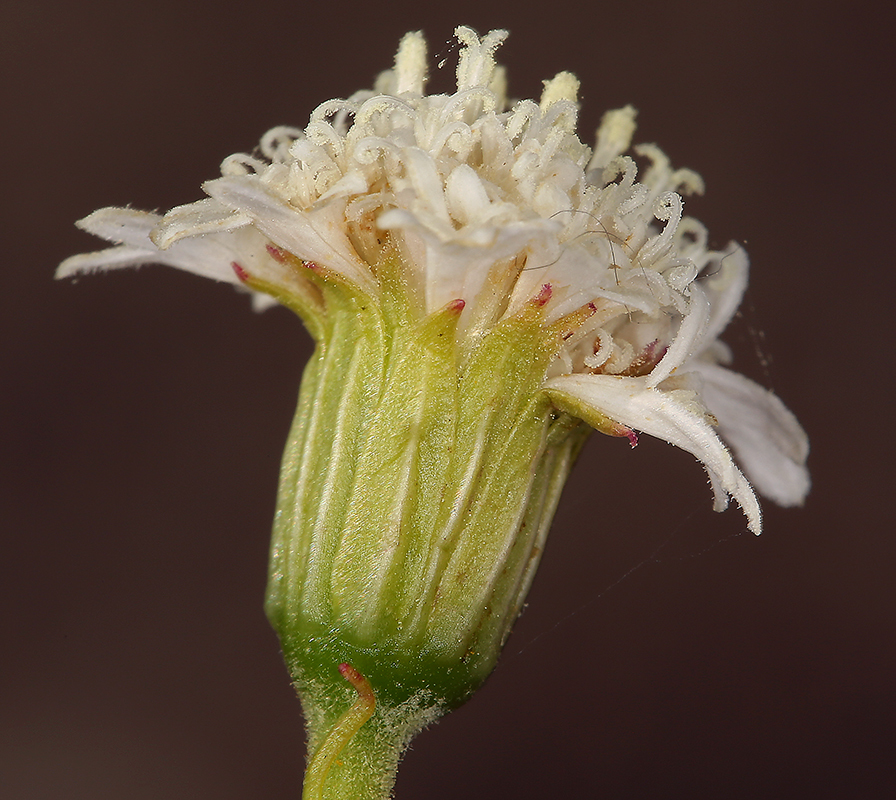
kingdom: Plantae
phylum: Tracheophyta
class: Magnoliopsida
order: Asterales
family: Asteraceae
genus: Chaenactis
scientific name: Chaenactis fremontii
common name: Fremont pincushion
